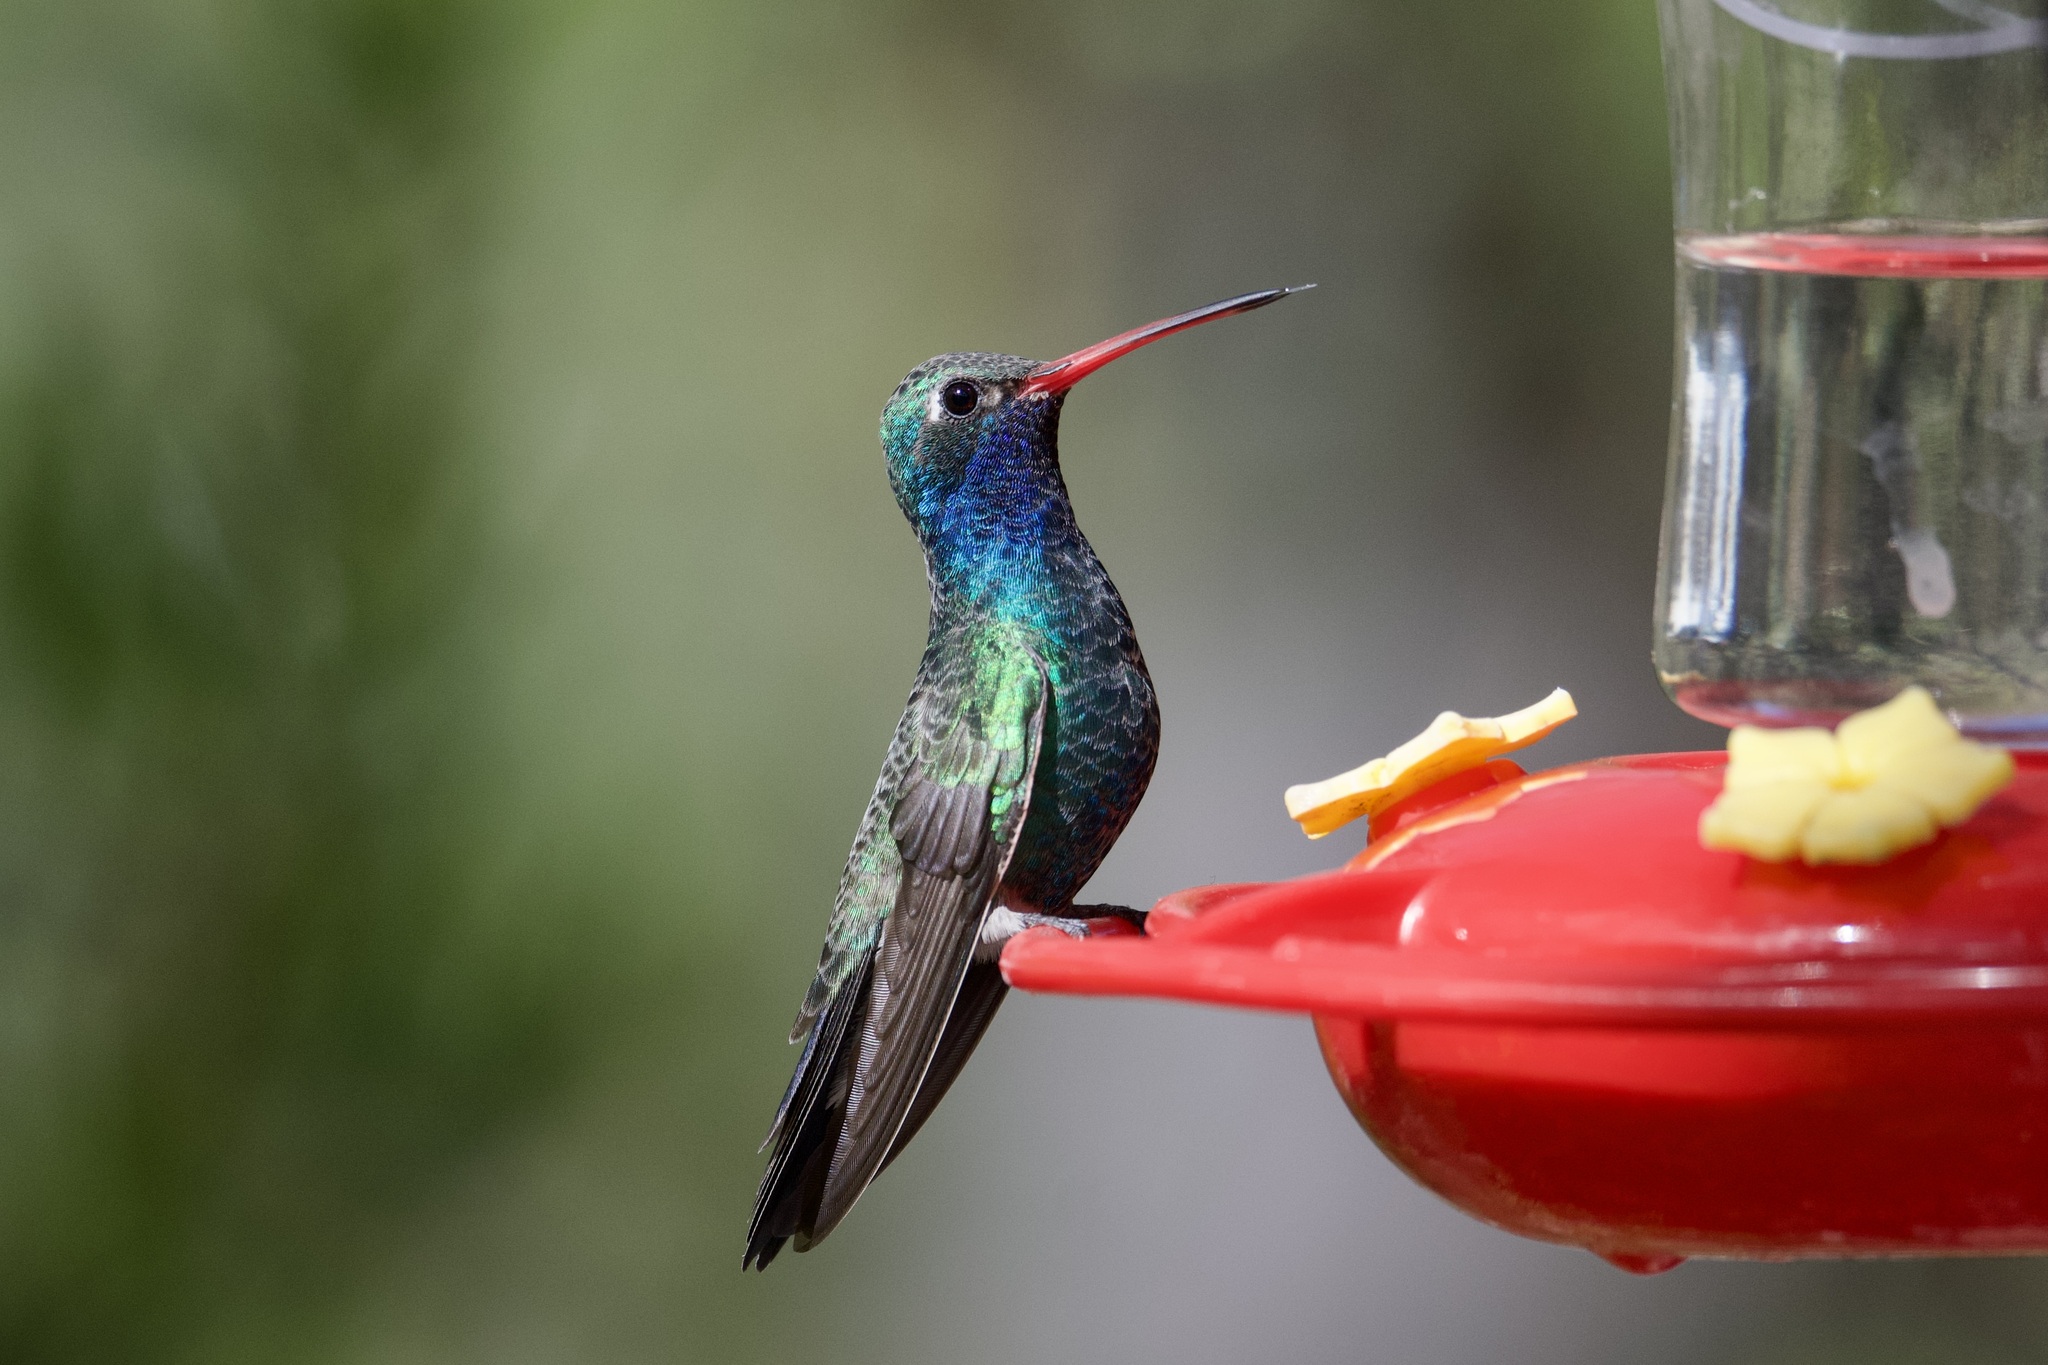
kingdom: Animalia
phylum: Chordata
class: Aves
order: Apodiformes
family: Trochilidae
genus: Cynanthus
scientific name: Cynanthus latirostris
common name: Broad-billed hummingbird
